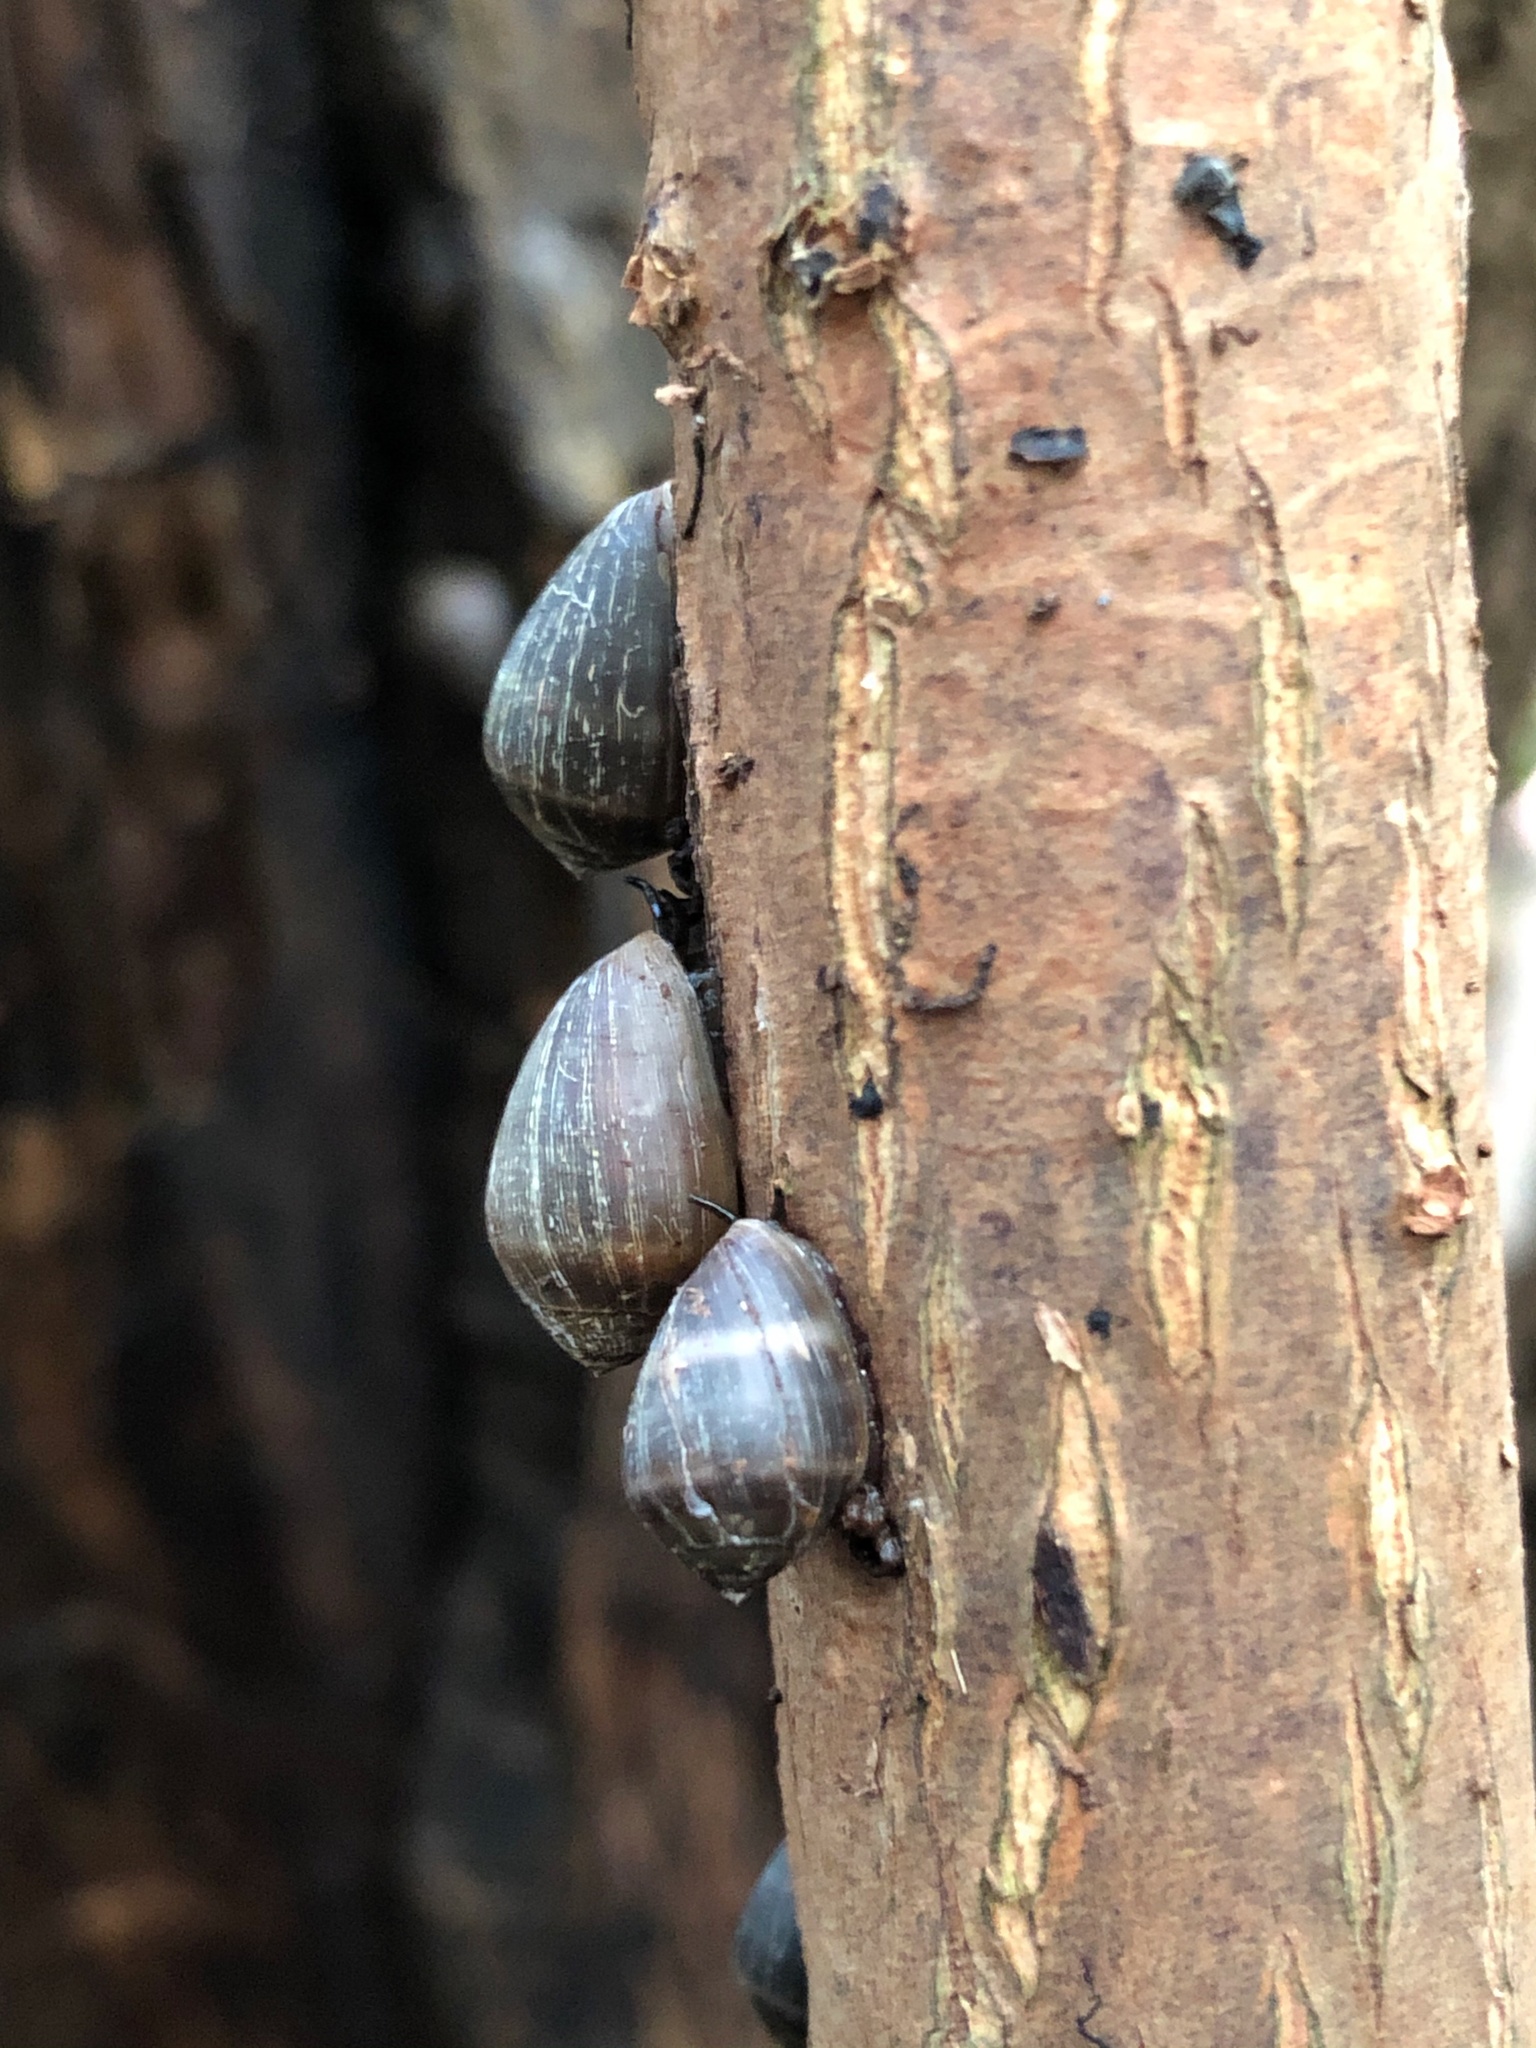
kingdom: Animalia
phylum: Mollusca
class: Gastropoda
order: Ellobiida
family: Ellobiidae
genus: Melampus
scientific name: Melampus coffea
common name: Coffee bean snail
